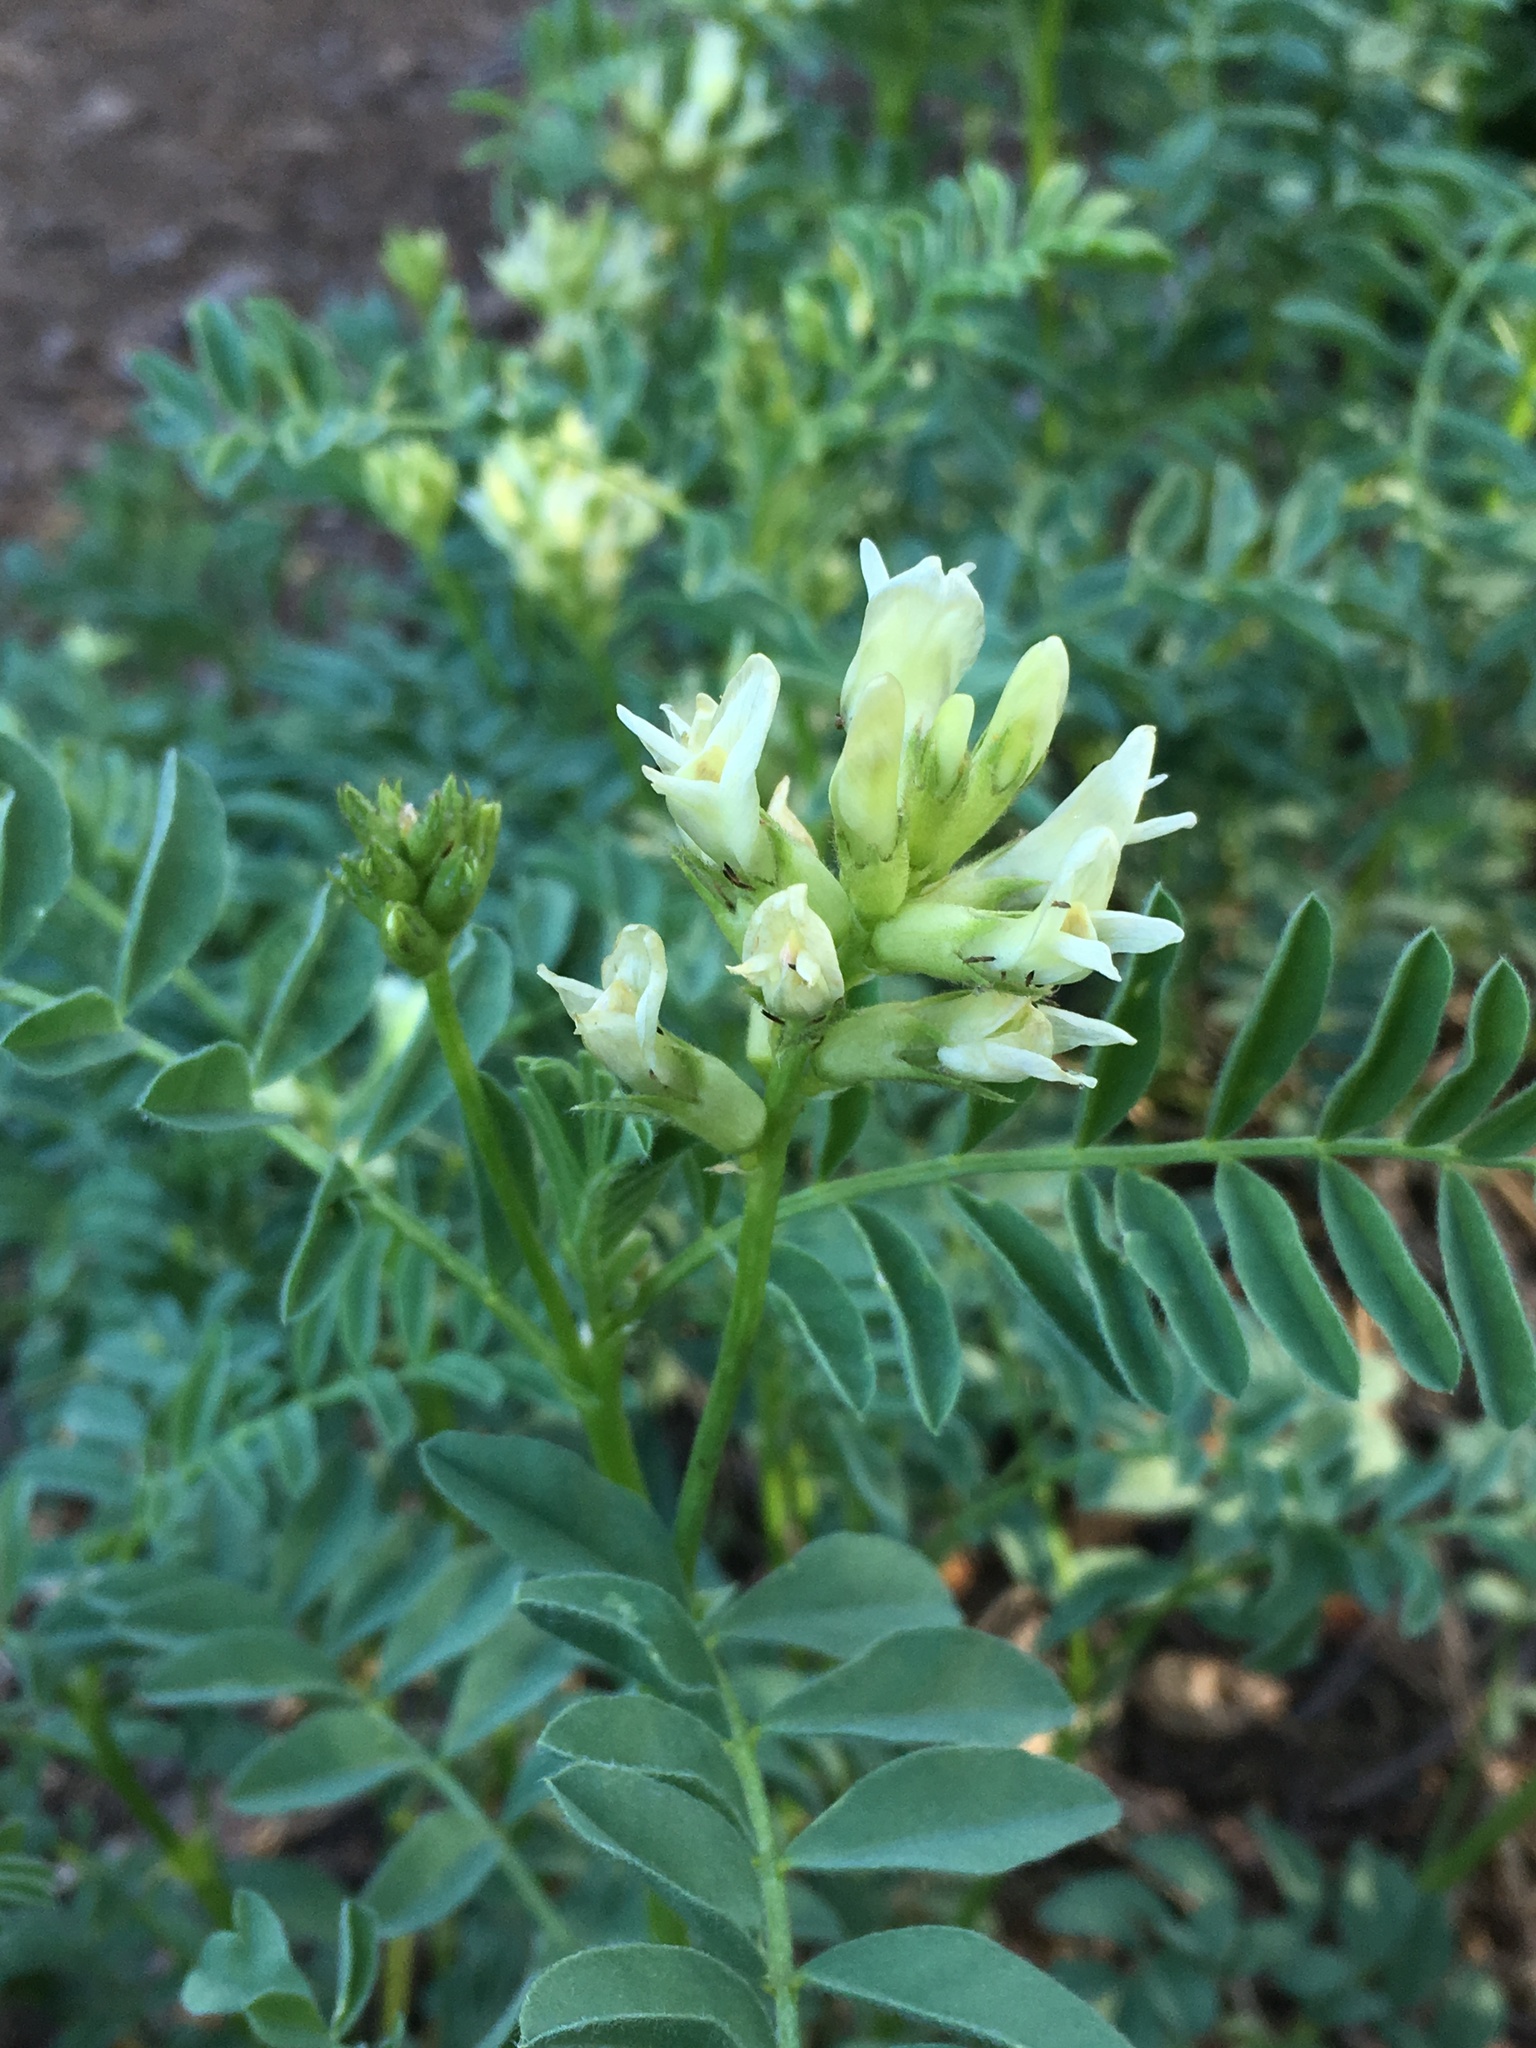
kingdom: Plantae
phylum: Tracheophyta
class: Magnoliopsida
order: Fabales
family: Fabaceae
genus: Astragalus
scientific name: Astragalus bolanderi
